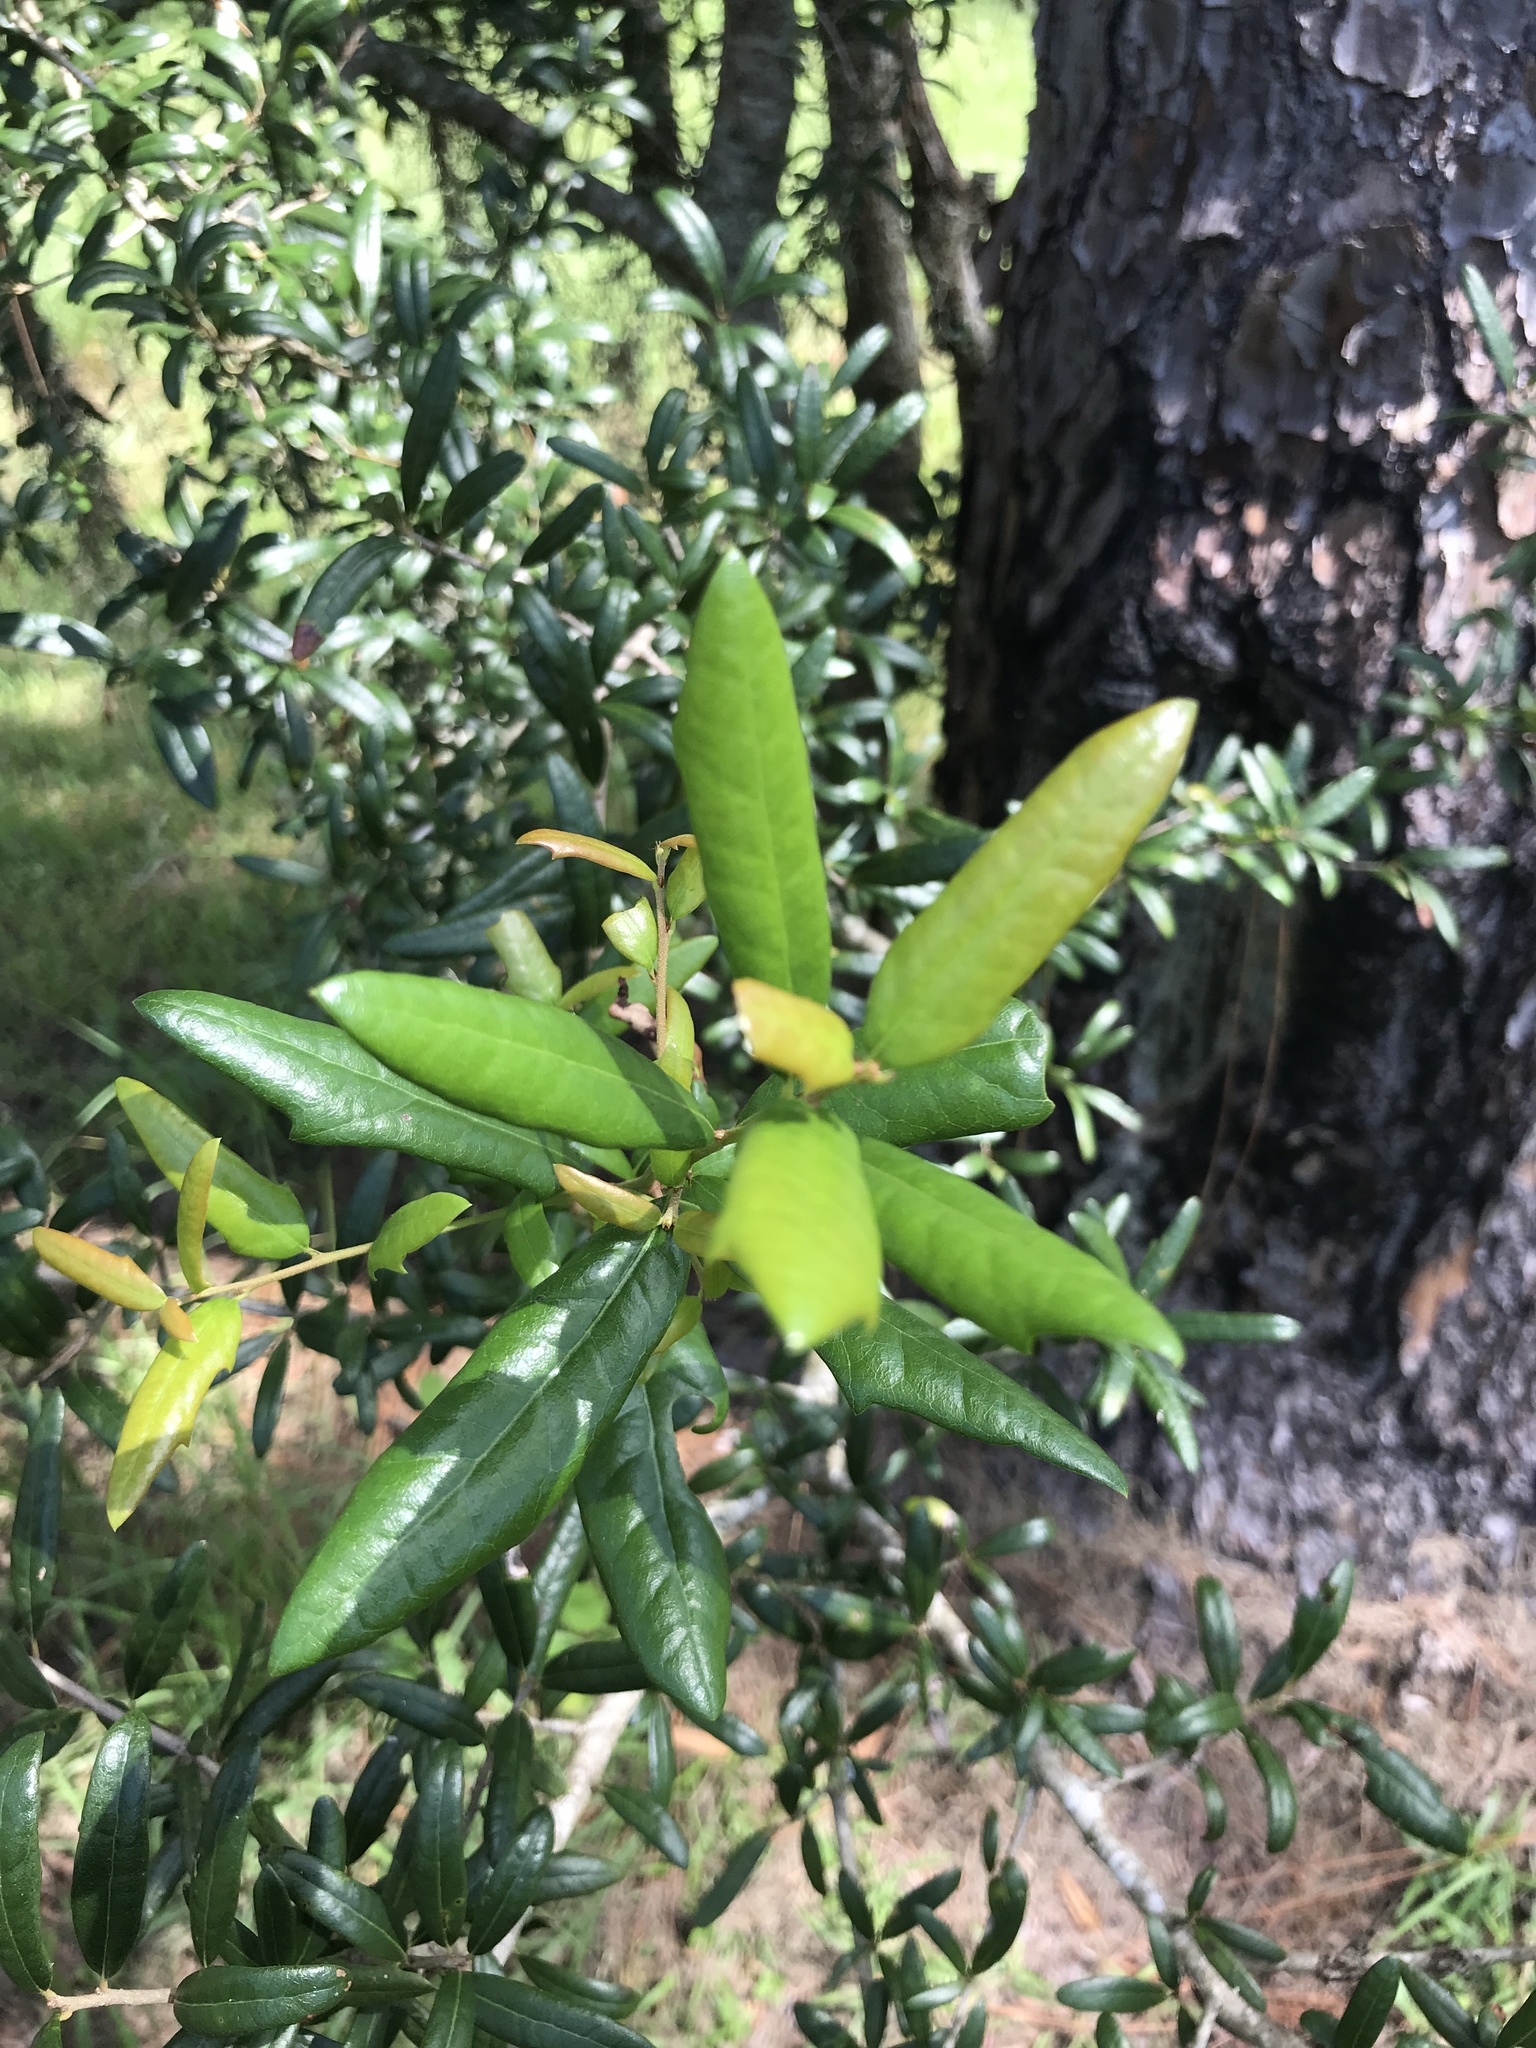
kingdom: Plantae
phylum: Tracheophyta
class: Magnoliopsida
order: Fagales
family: Fagaceae
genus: Quercus
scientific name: Quercus geminata
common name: Sand live oak
